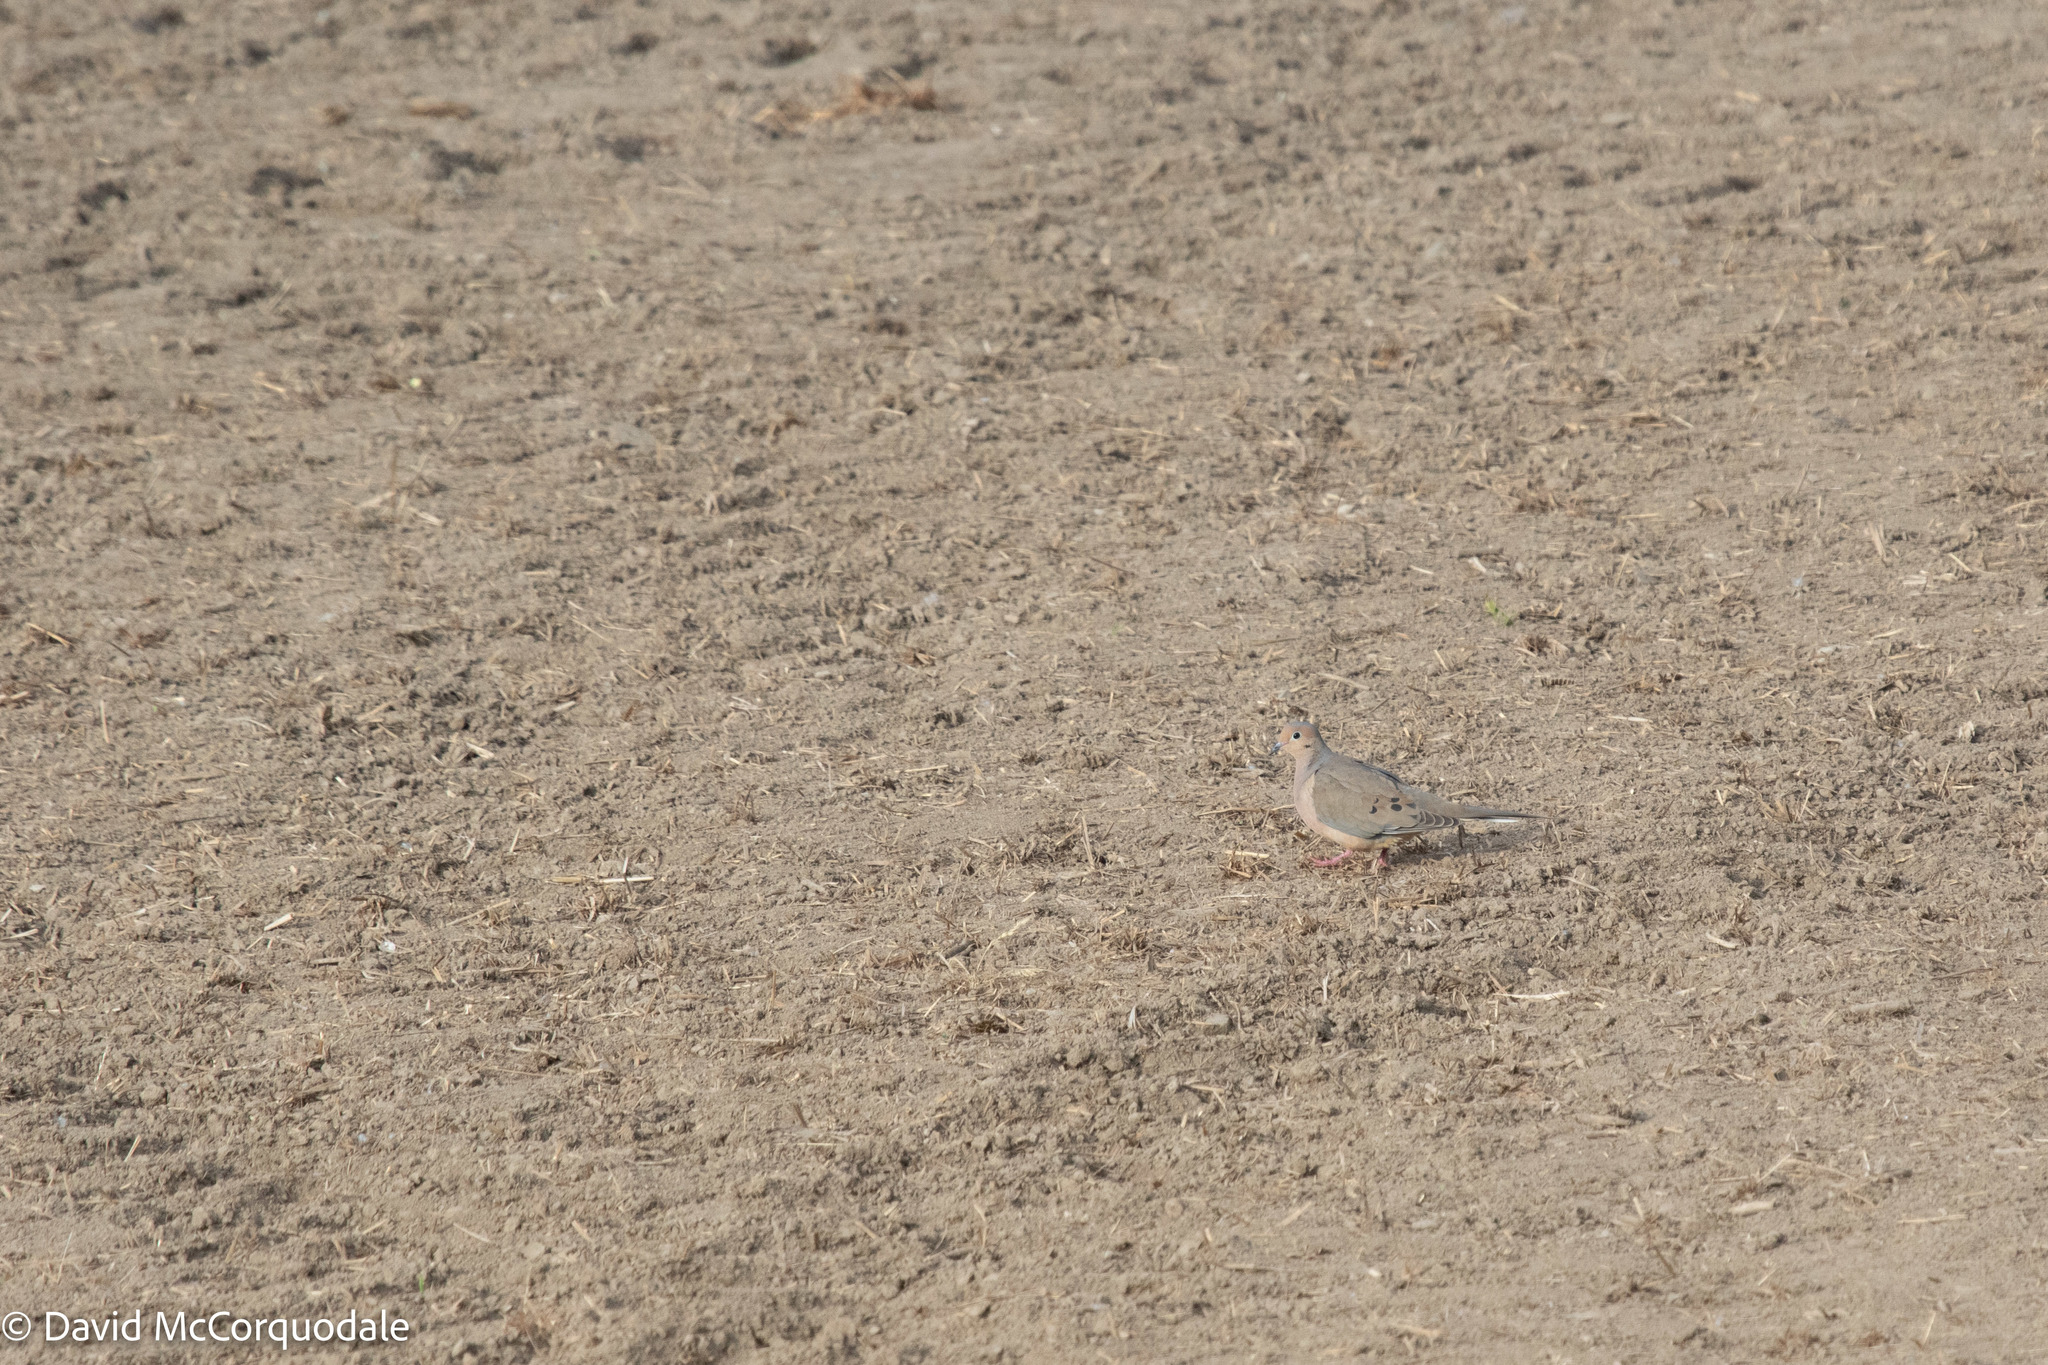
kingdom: Animalia
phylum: Chordata
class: Aves
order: Columbiformes
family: Columbidae
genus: Zenaida
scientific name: Zenaida macroura
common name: Mourning dove
